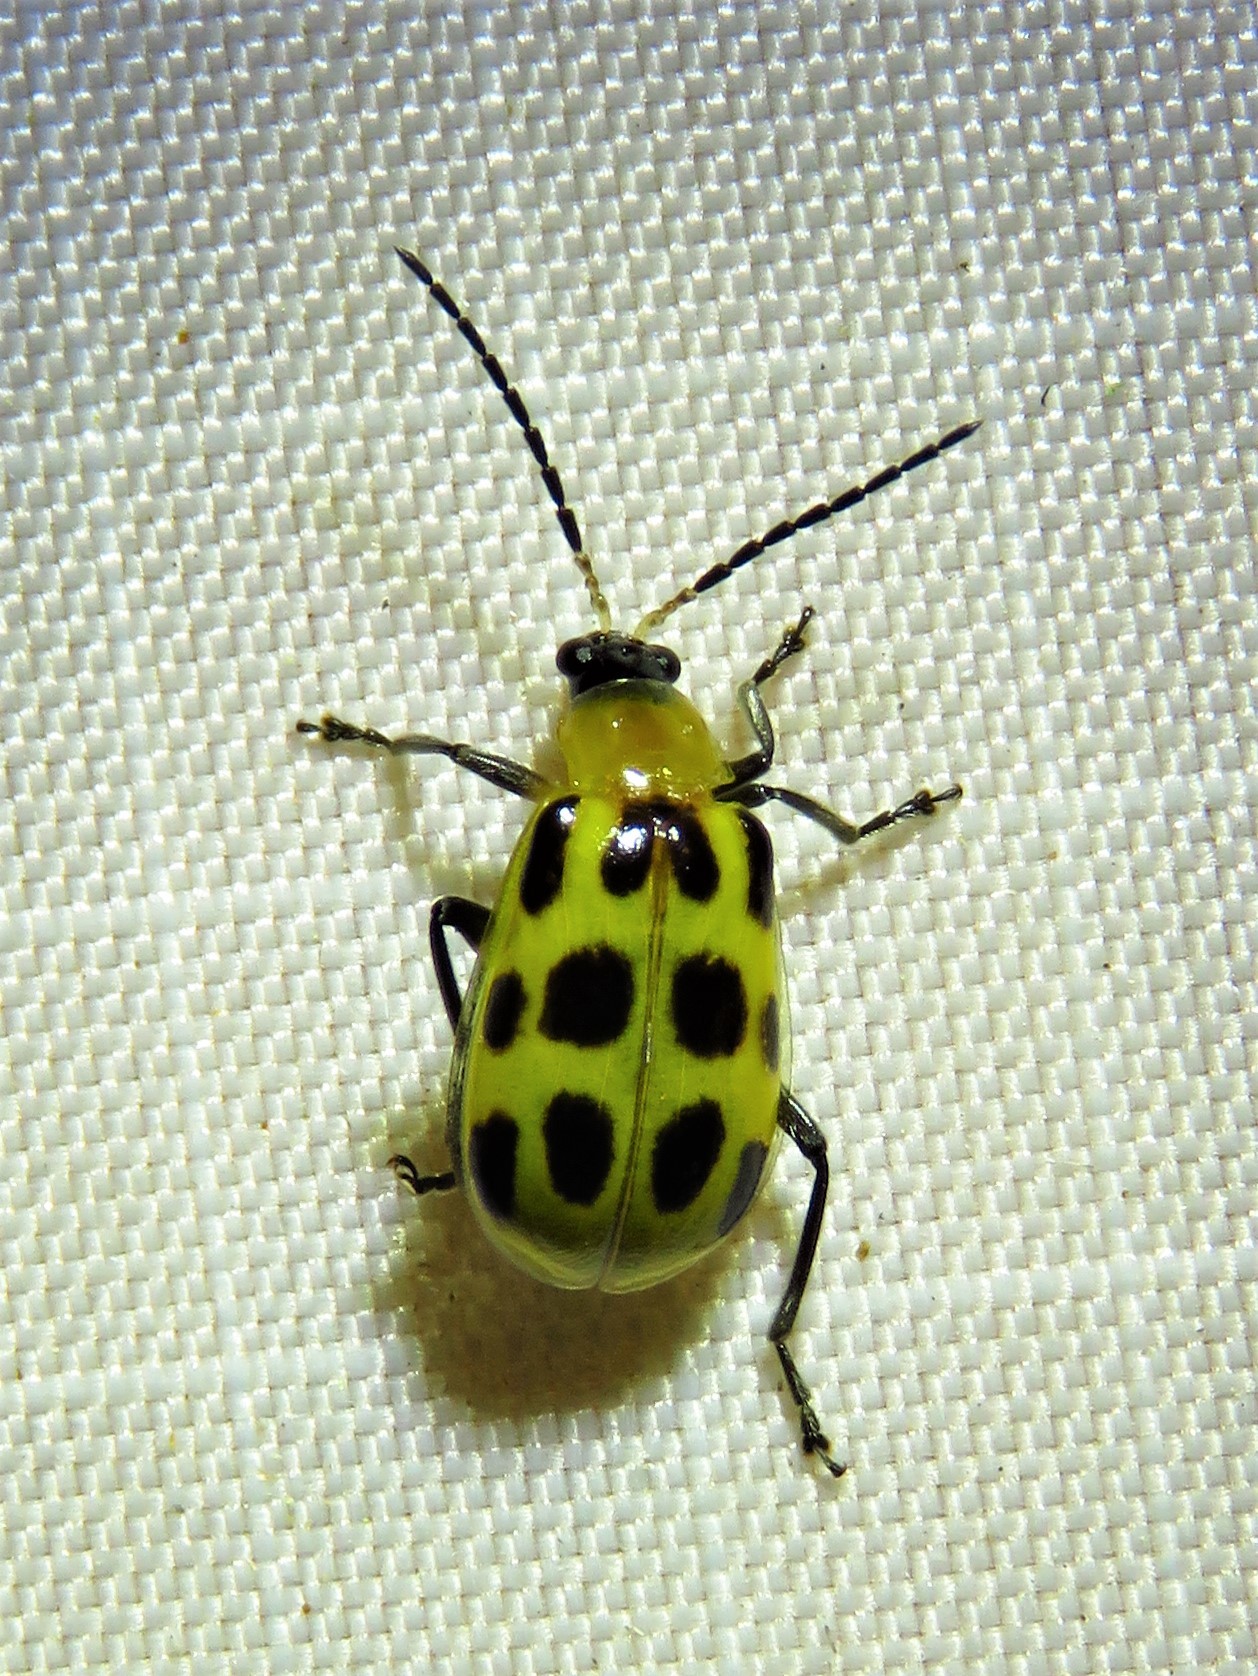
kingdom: Animalia
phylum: Arthropoda
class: Insecta
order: Coleoptera
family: Chrysomelidae
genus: Diabrotica
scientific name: Diabrotica undecimpunctata
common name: Spotted cucumber beetle
